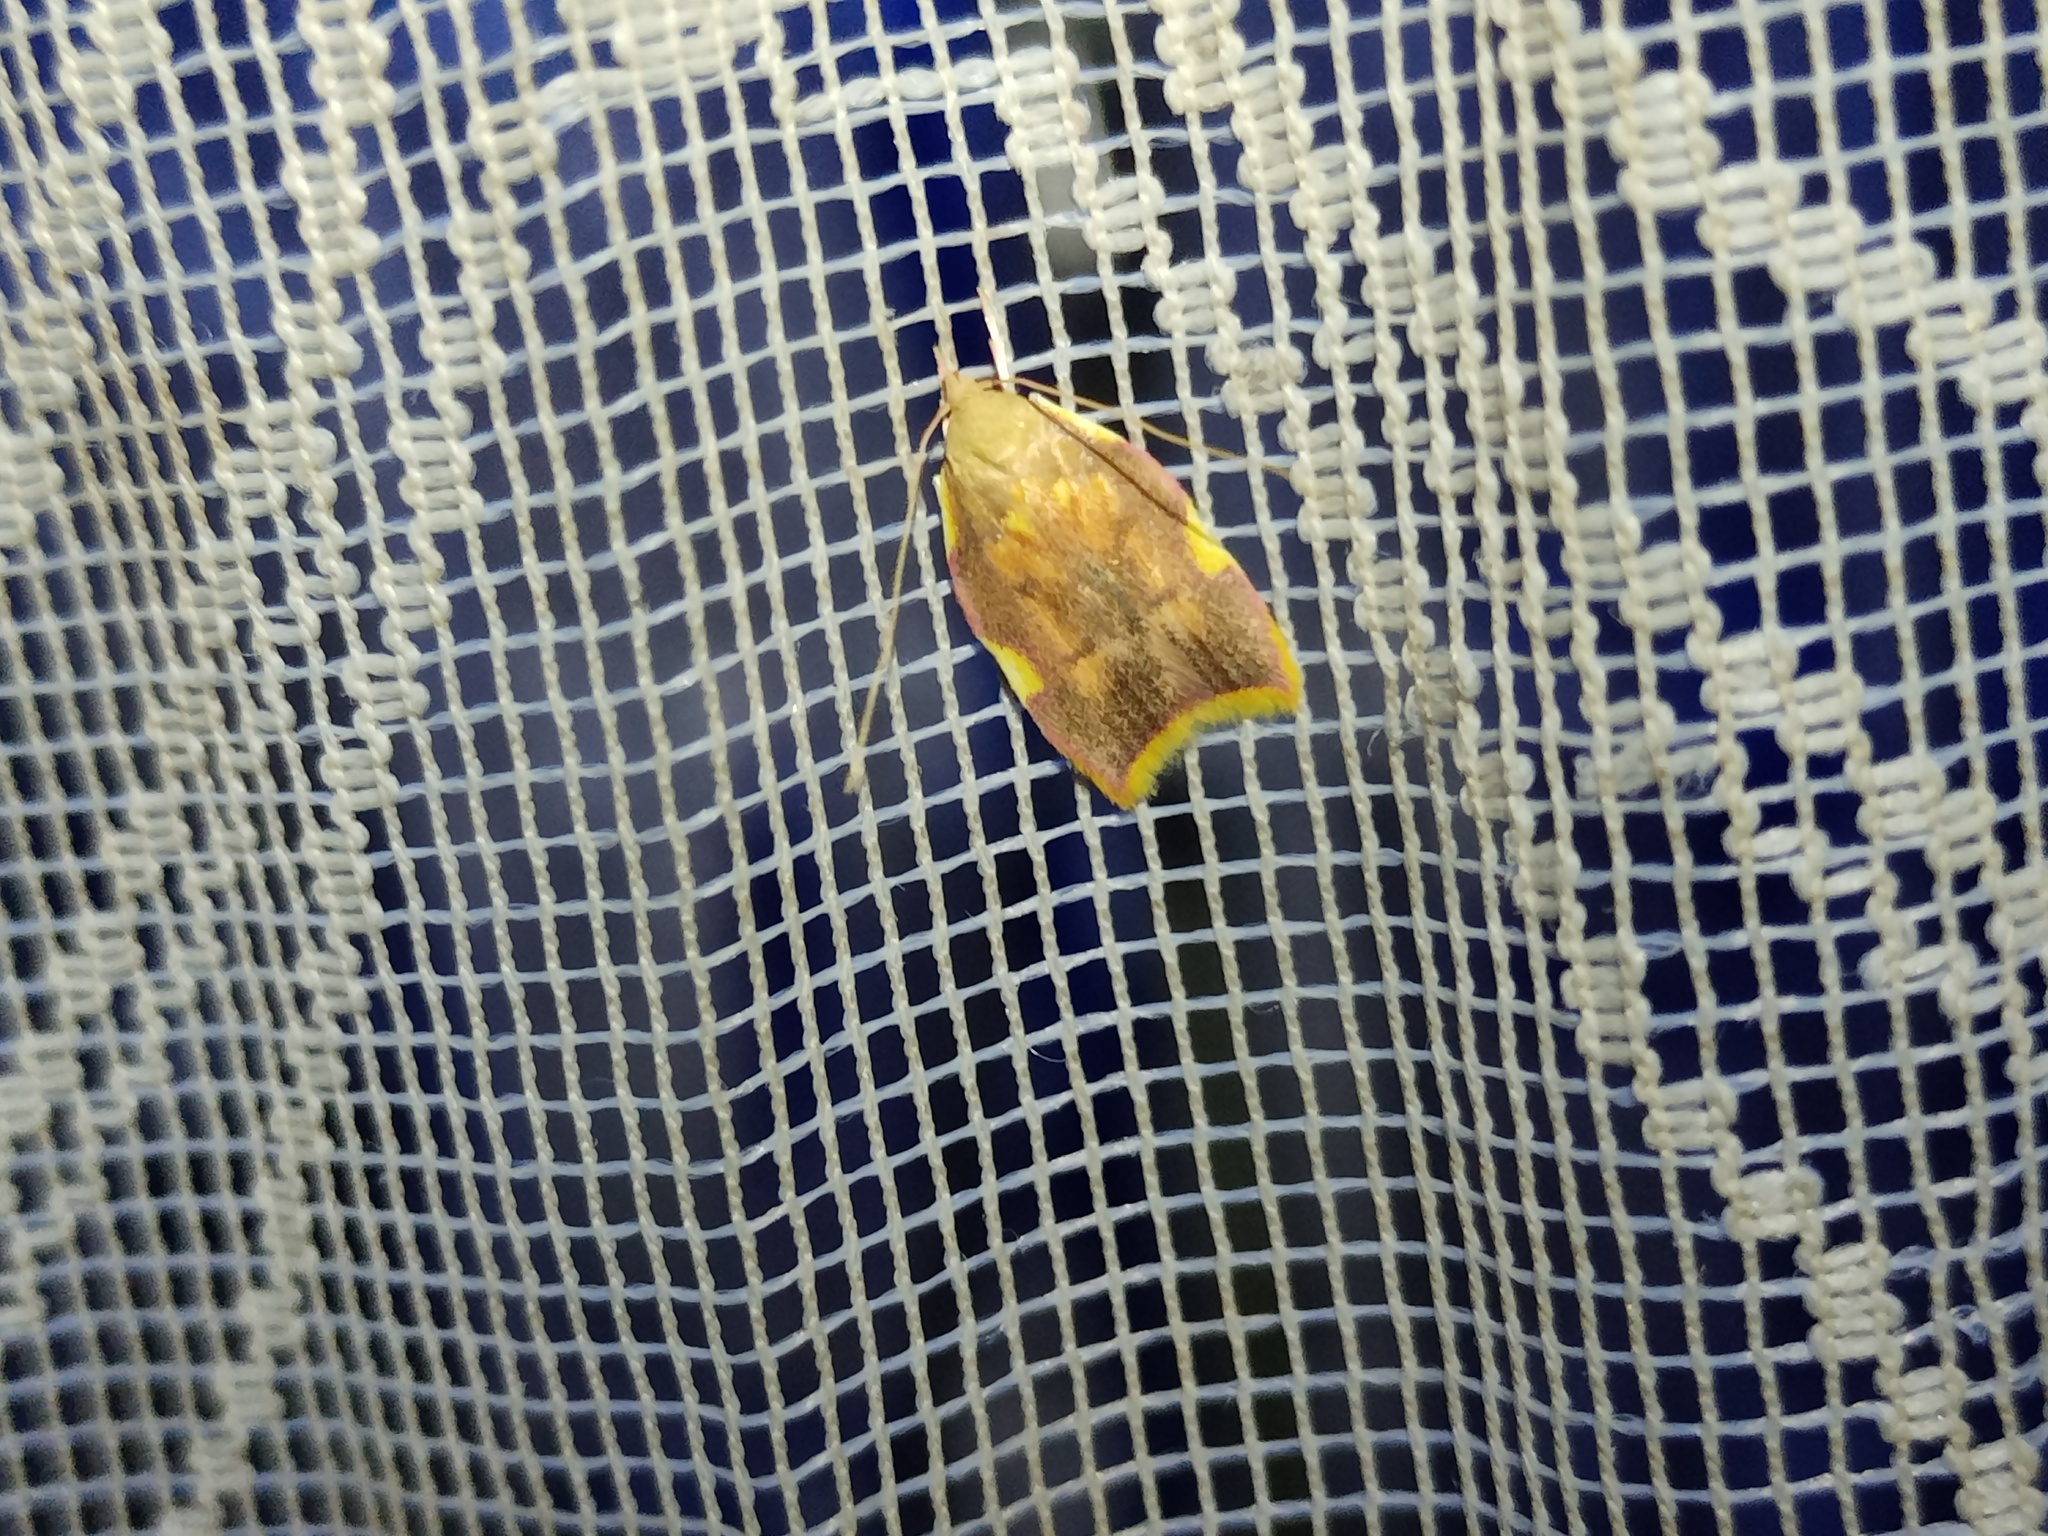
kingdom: Animalia
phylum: Arthropoda
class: Insecta
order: Lepidoptera
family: Peleopodidae
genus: Carcina
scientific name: Carcina quercana
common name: Moth
